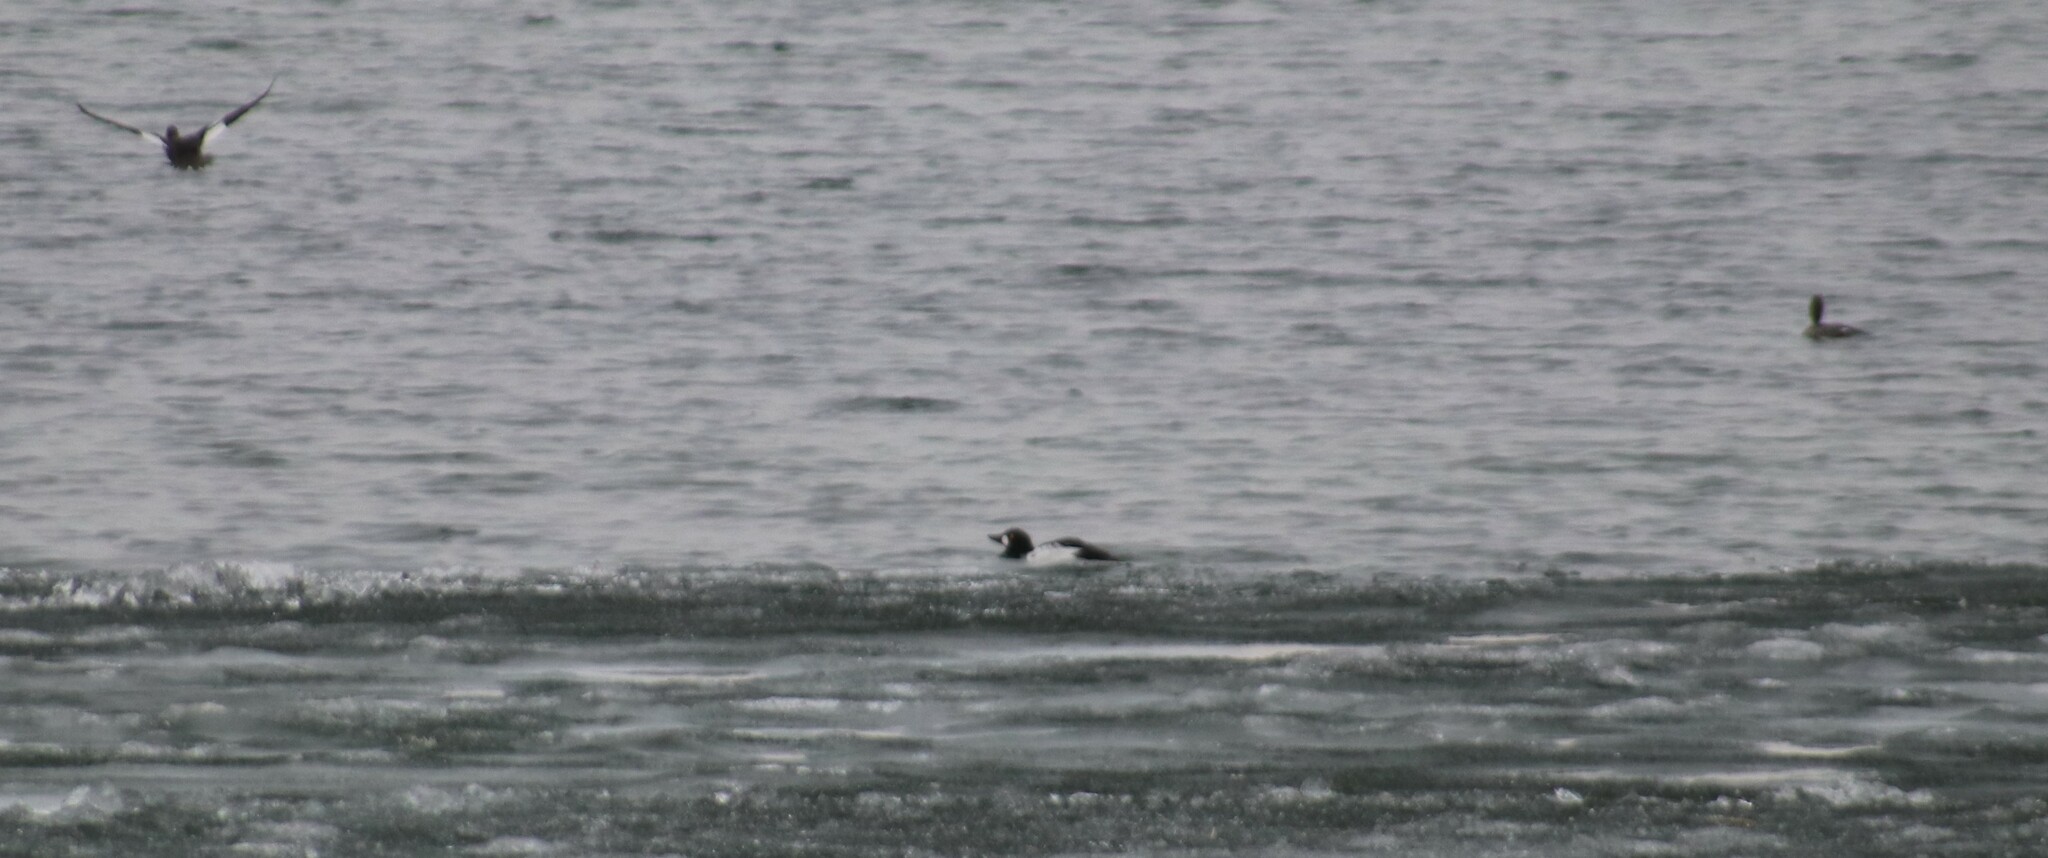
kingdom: Animalia
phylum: Chordata
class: Aves
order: Anseriformes
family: Anatidae
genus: Bucephala
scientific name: Bucephala clangula
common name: Common goldeneye
